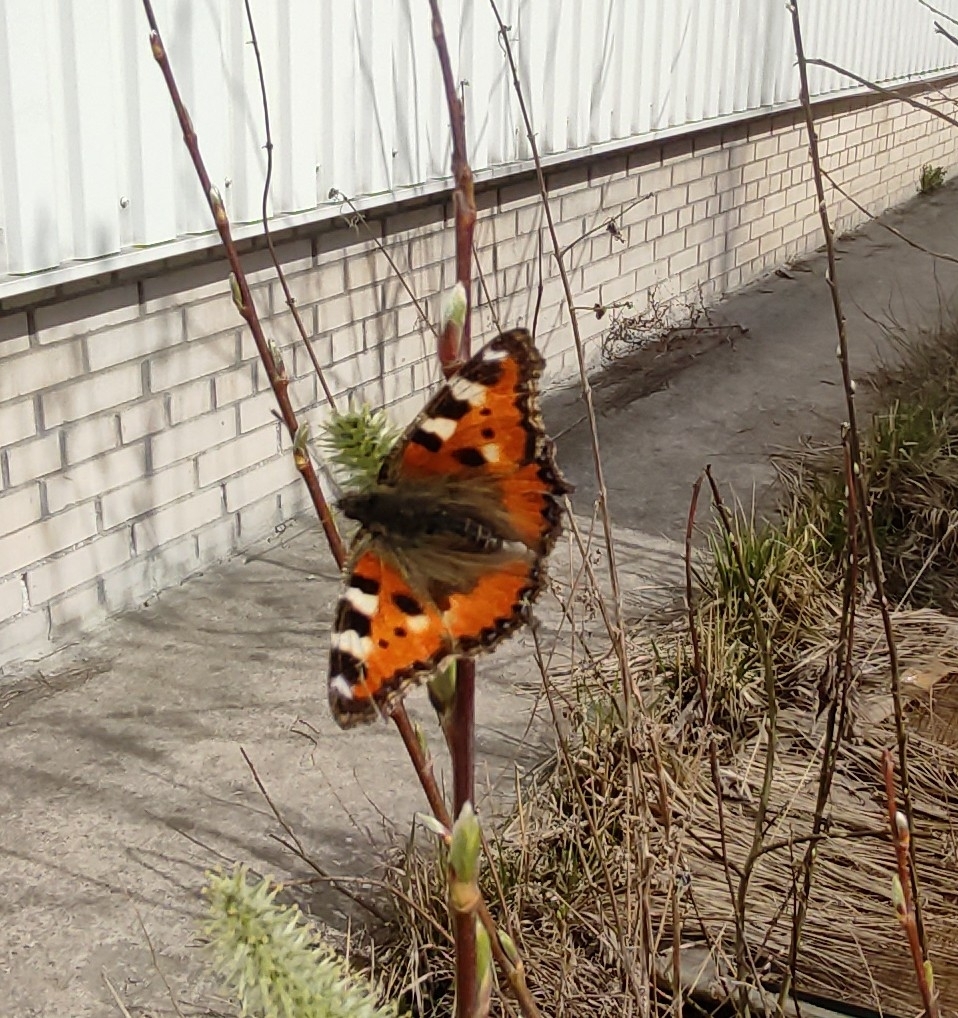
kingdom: Animalia
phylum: Arthropoda
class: Insecta
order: Lepidoptera
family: Nymphalidae
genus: Aglais
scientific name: Aglais urticae
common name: Small tortoiseshell
